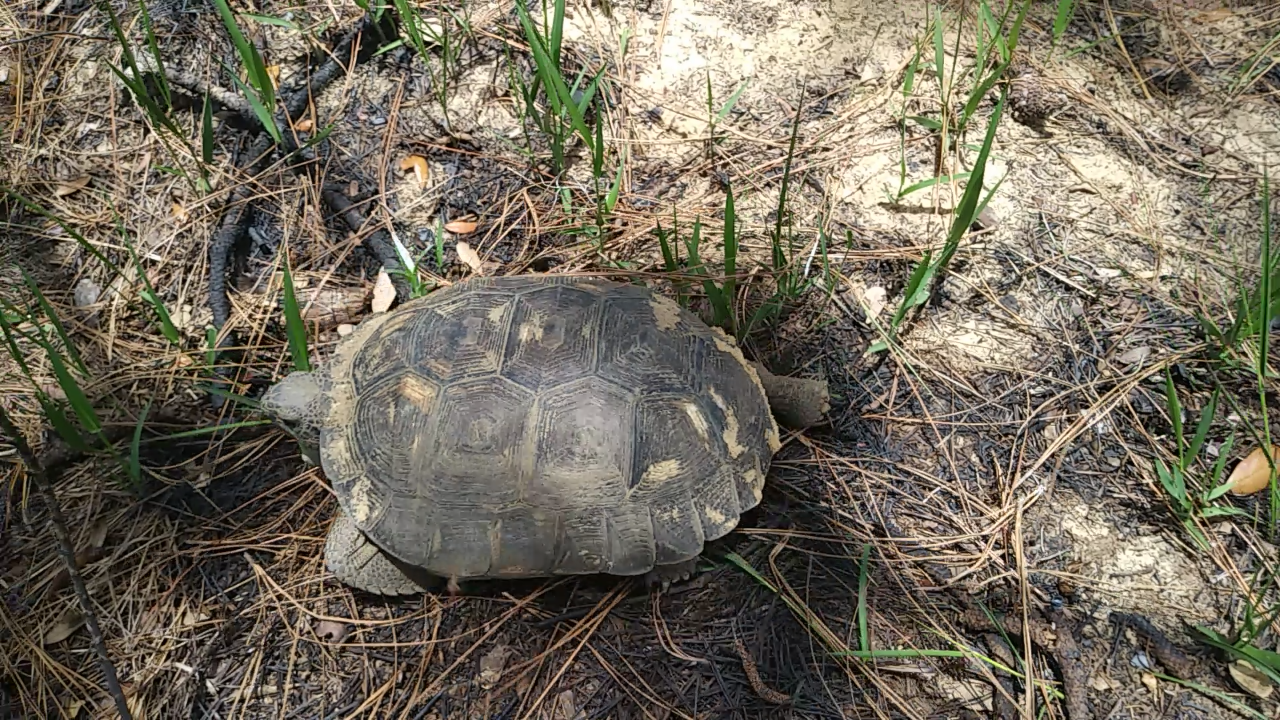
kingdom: Animalia
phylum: Chordata
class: Testudines
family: Testudinidae
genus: Gopherus
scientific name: Gopherus polyphemus
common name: Florida gopher tortoise
